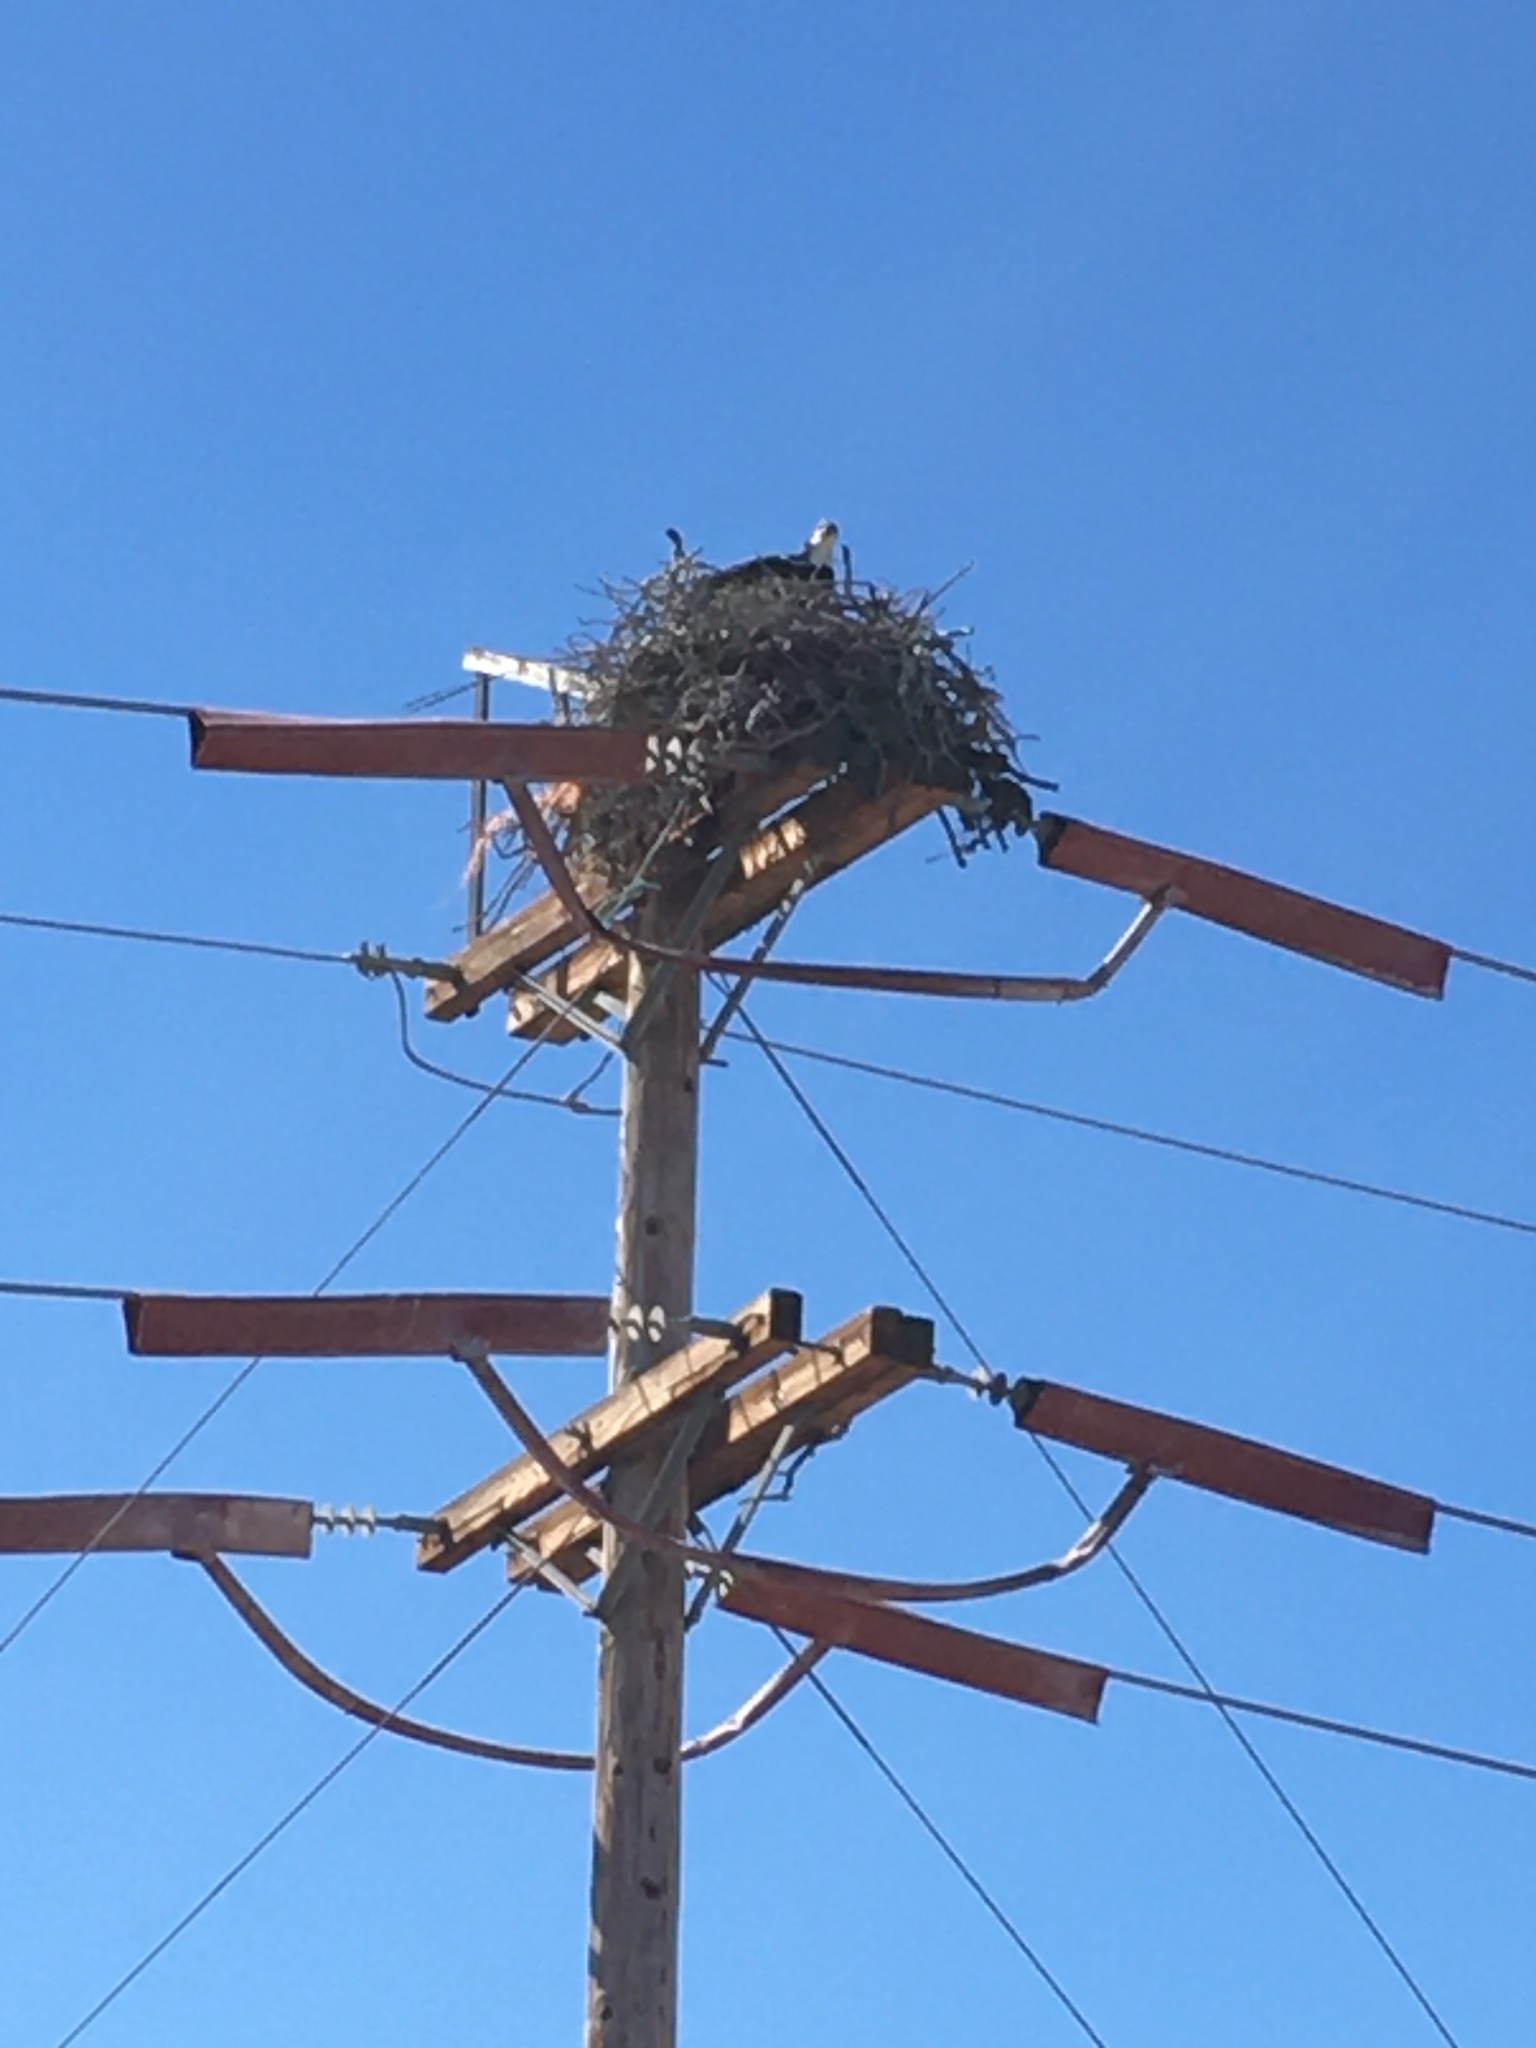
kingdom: Animalia
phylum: Chordata
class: Aves
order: Accipitriformes
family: Pandionidae
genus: Pandion
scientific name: Pandion haliaetus
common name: Osprey
